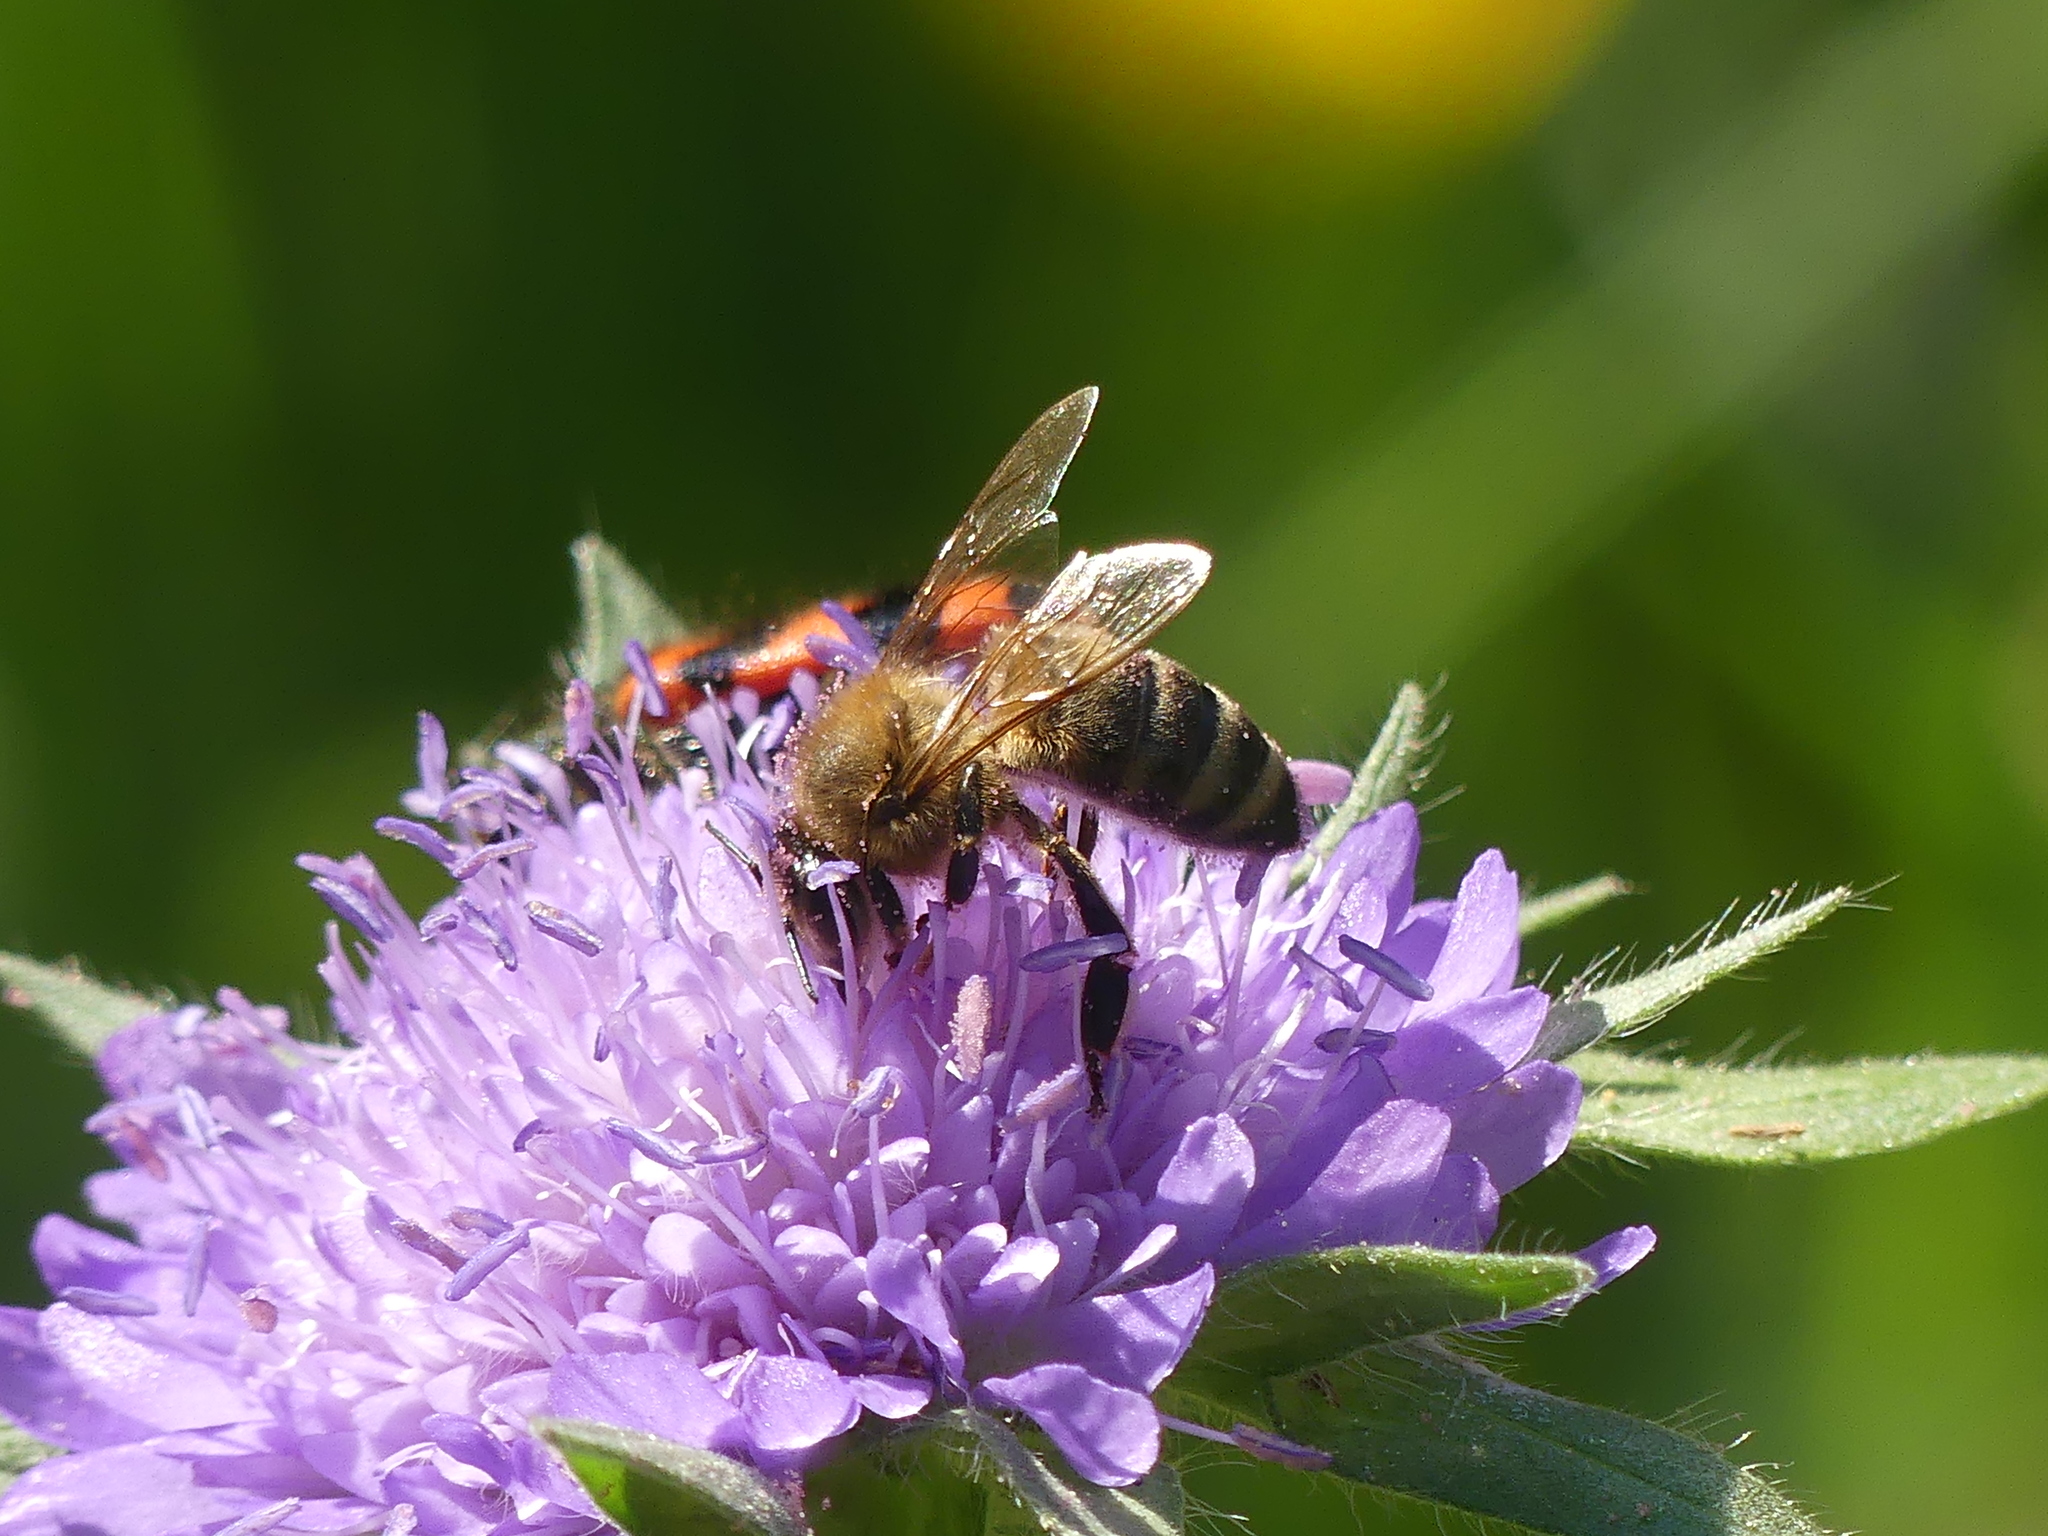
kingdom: Animalia
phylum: Arthropoda
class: Insecta
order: Hymenoptera
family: Apidae
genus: Apis
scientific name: Apis mellifera
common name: Honey bee
